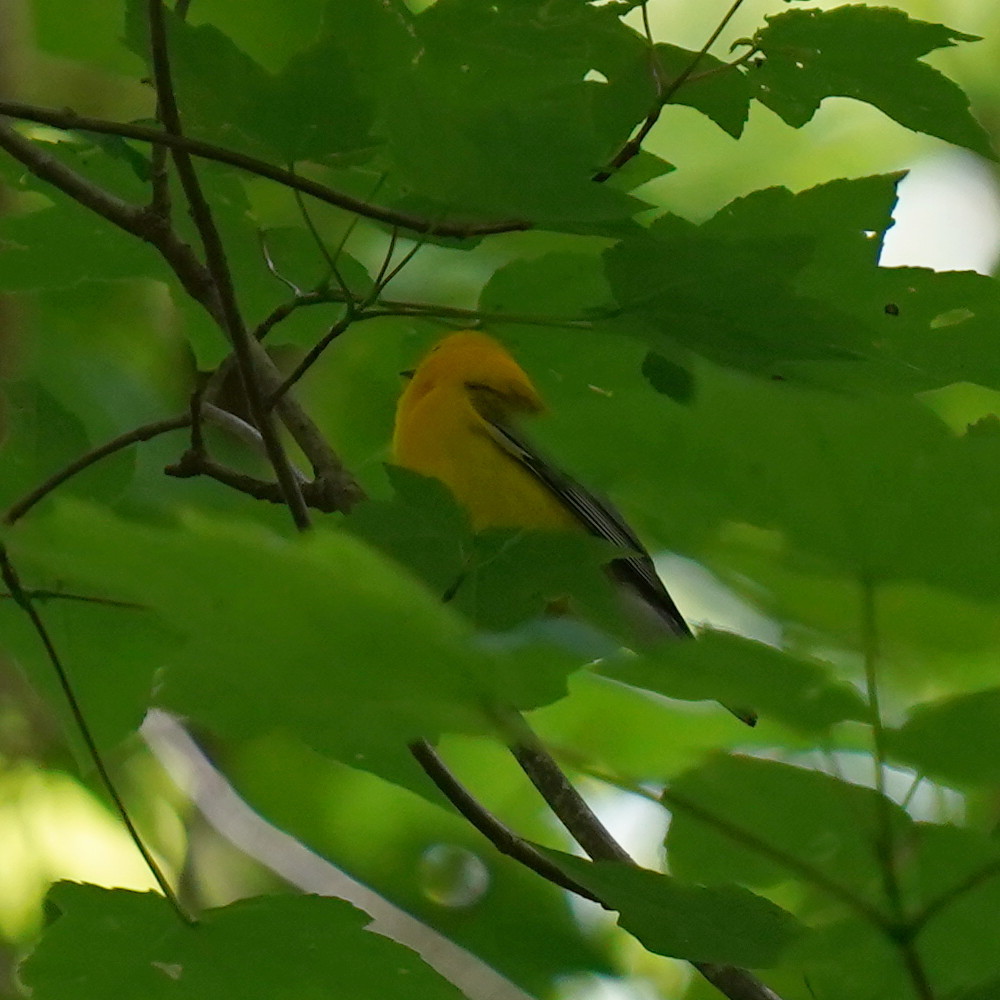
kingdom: Animalia
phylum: Chordata
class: Aves
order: Passeriformes
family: Parulidae
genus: Protonotaria
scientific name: Protonotaria citrea
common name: Prothonotary warbler
